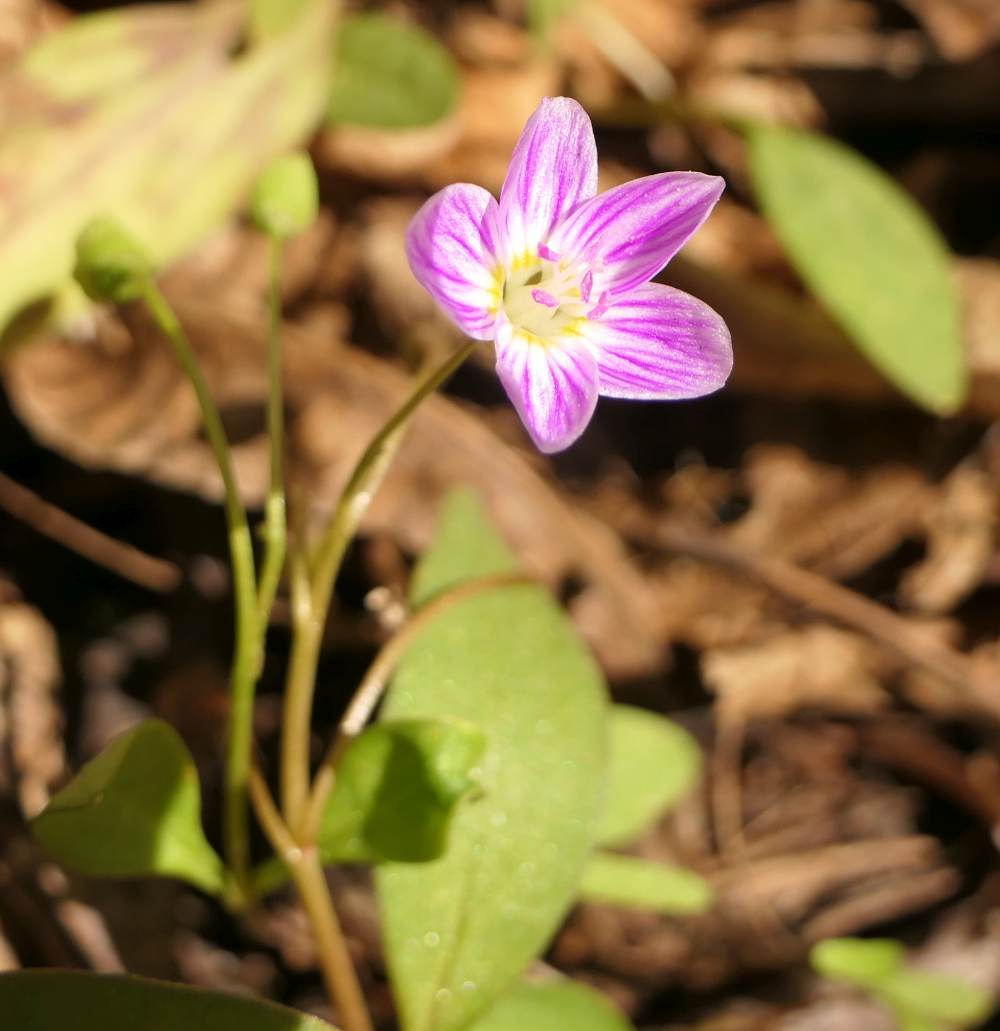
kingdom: Plantae
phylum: Tracheophyta
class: Magnoliopsida
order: Caryophyllales
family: Montiaceae
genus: Claytonia
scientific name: Claytonia caroliniana
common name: Carolina spring beauty
